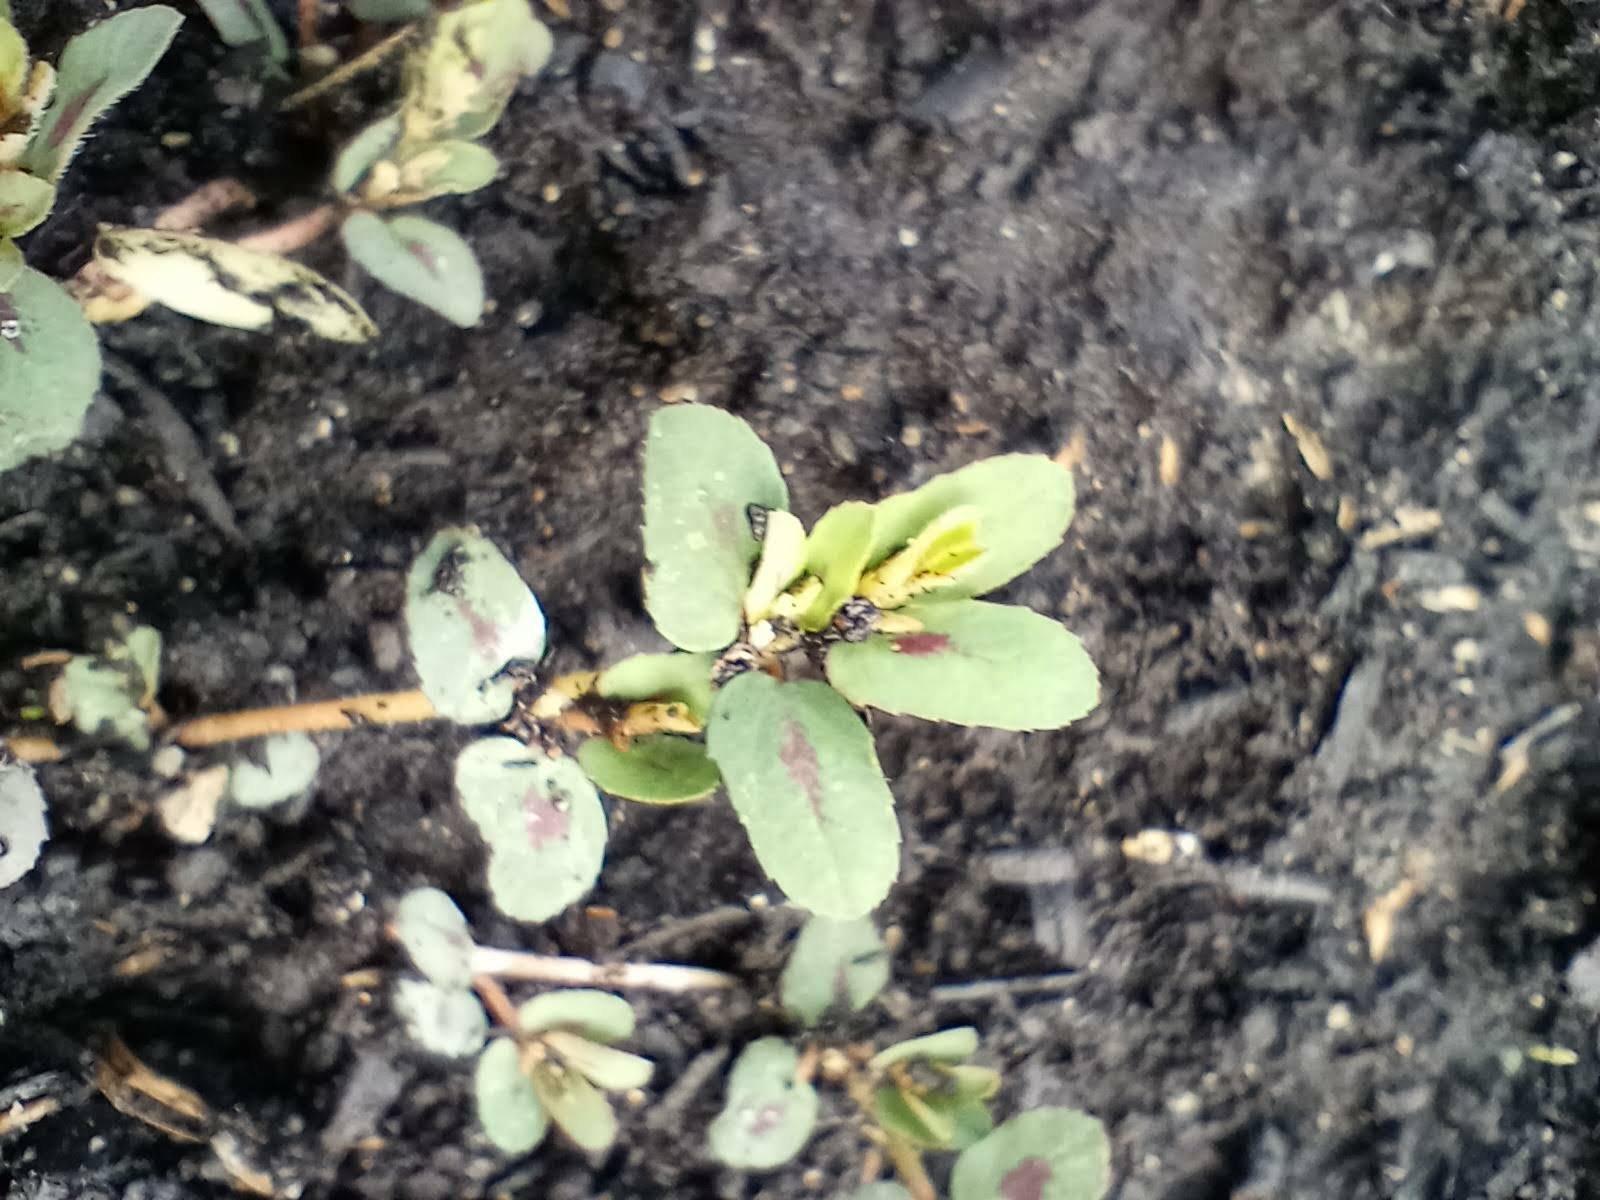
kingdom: Plantae
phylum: Tracheophyta
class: Magnoliopsida
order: Malpighiales
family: Euphorbiaceae
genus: Euphorbia
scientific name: Euphorbia maculata
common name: Spotted spurge
